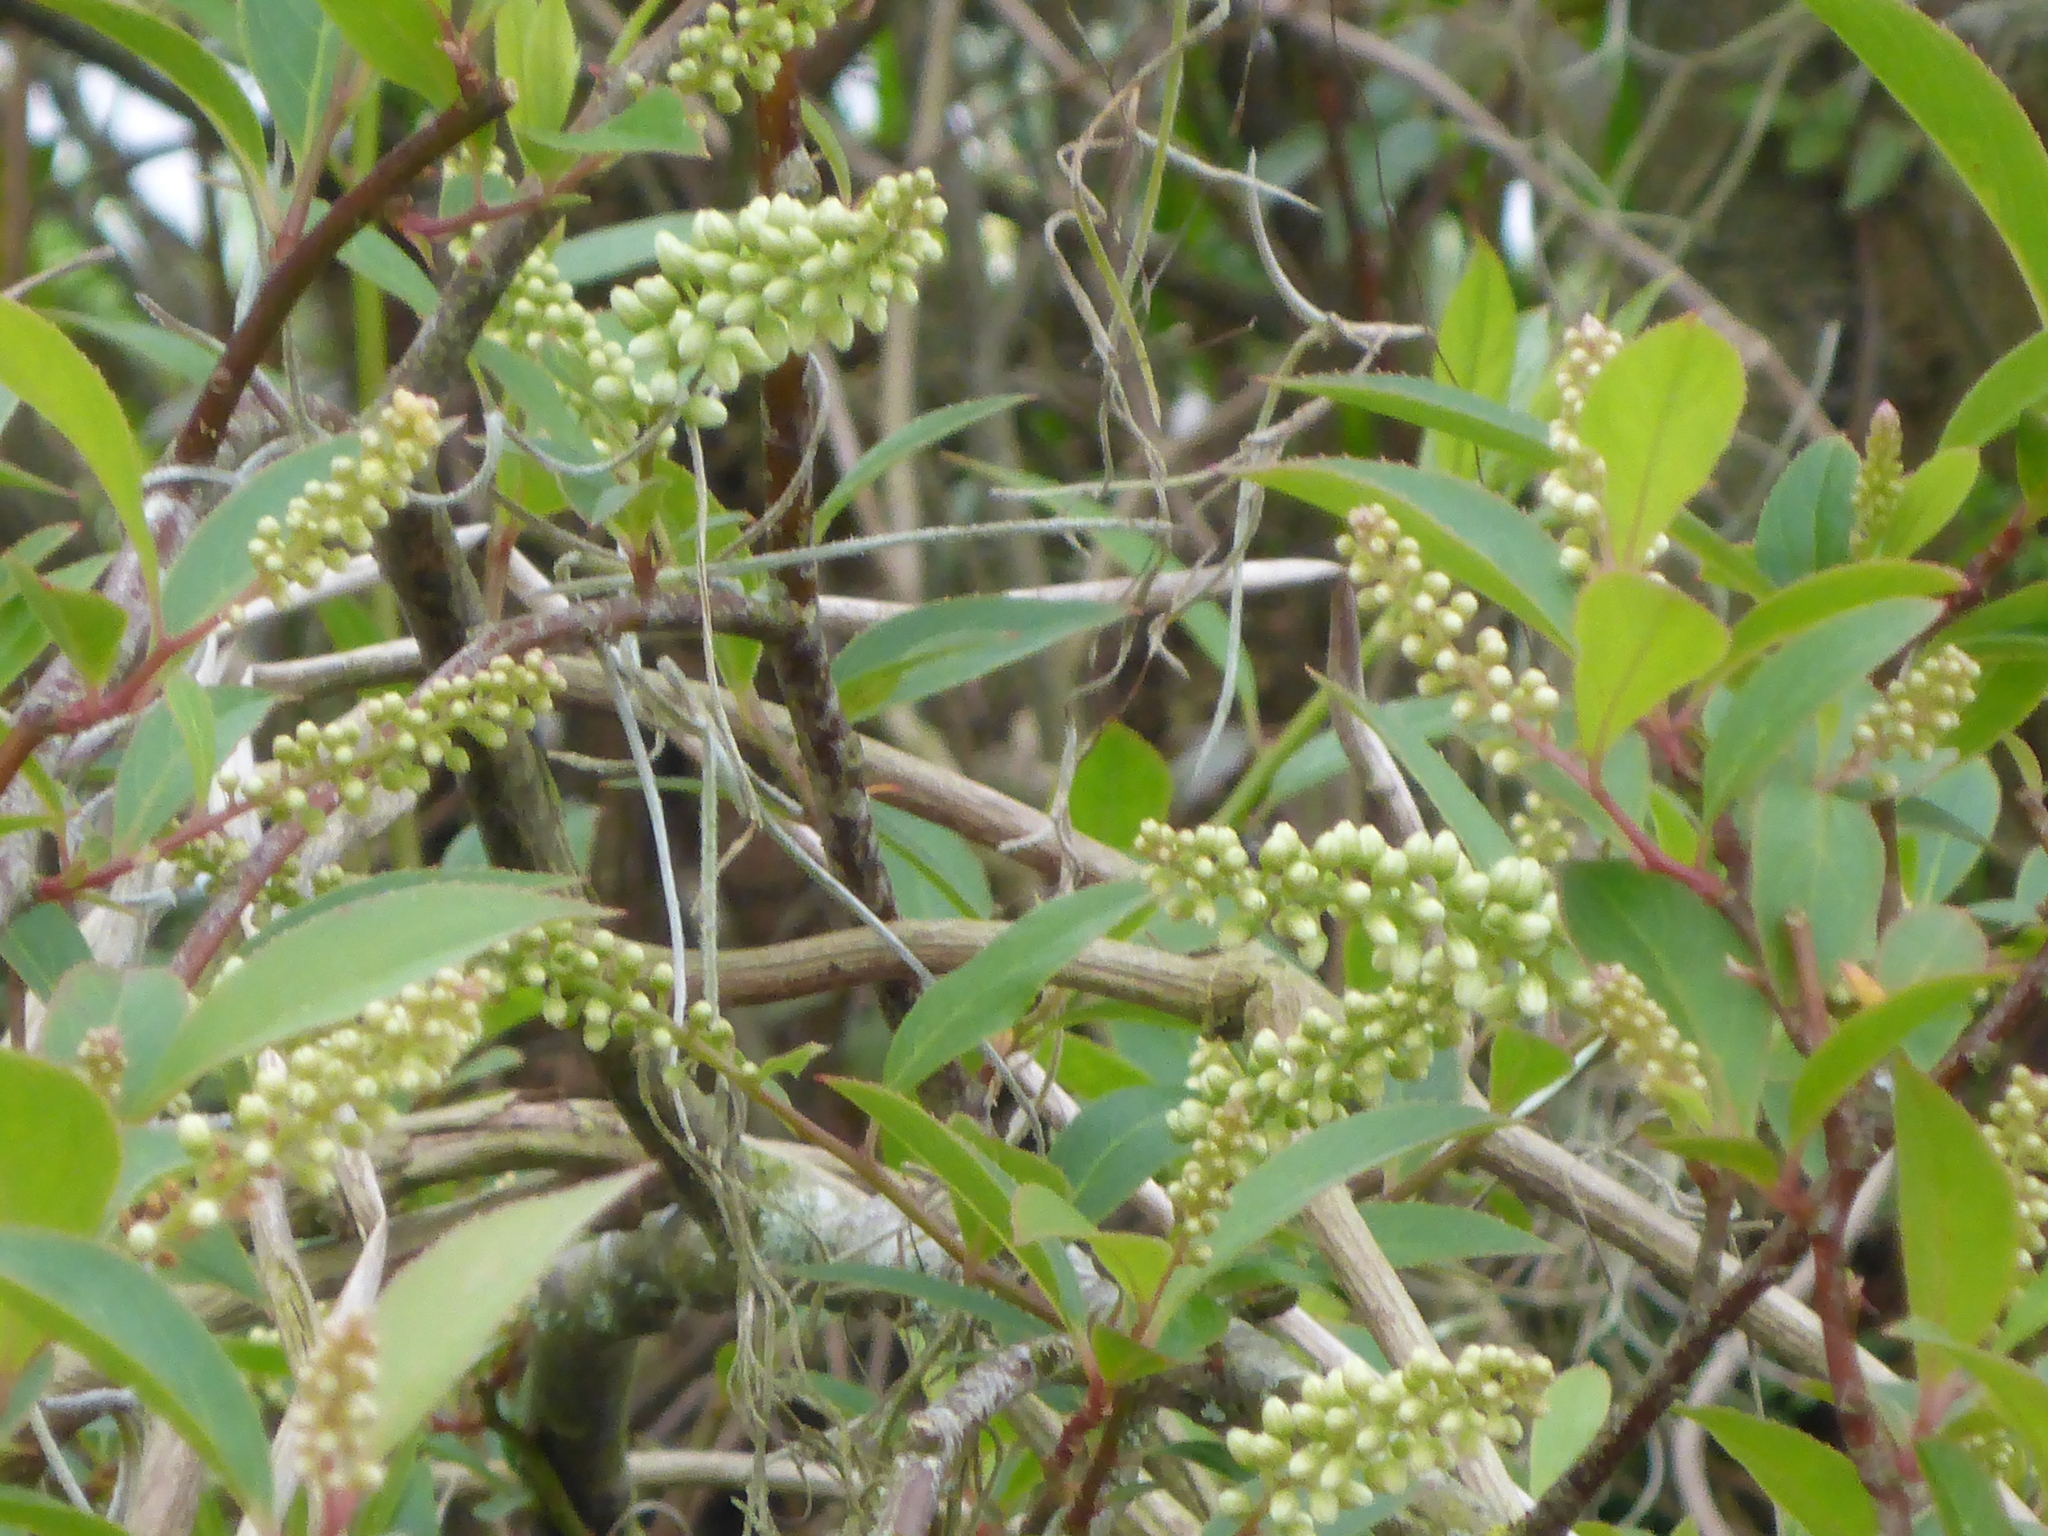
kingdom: Plantae
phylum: Tracheophyta
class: Magnoliopsida
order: Saxifragales
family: Iteaceae
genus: Itea
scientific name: Itea virginica
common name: Sweetspire
